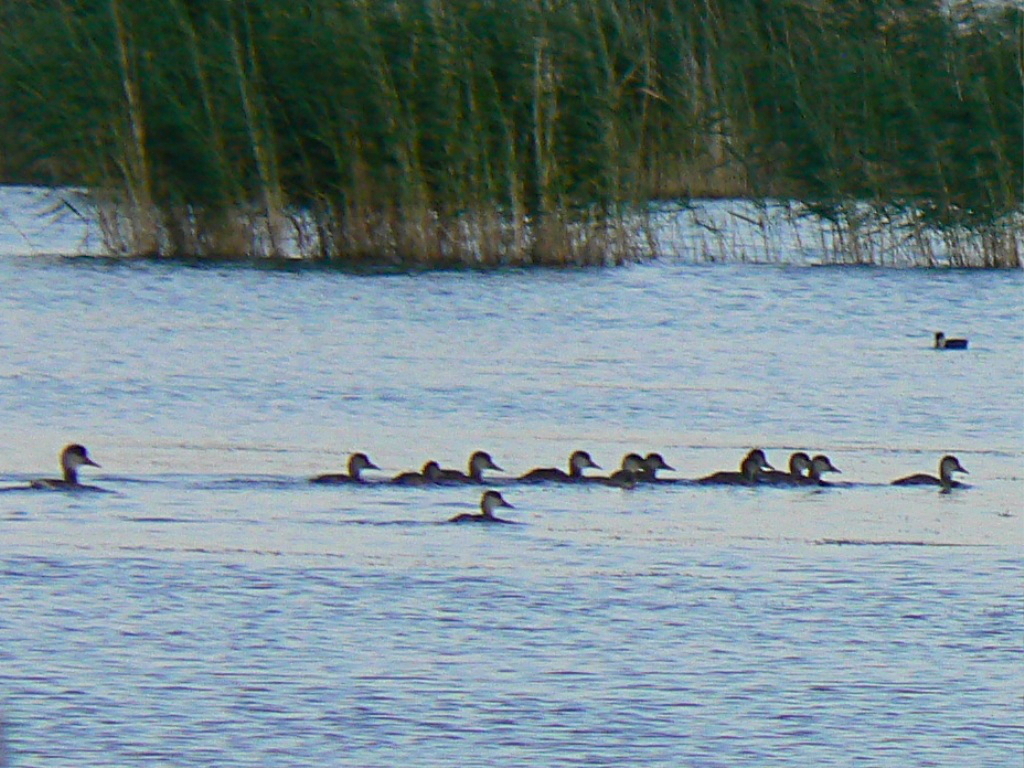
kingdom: Animalia
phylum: Chordata
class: Aves
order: Anseriformes
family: Anatidae
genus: Netta
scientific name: Netta rufina
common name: Red-crested pochard
